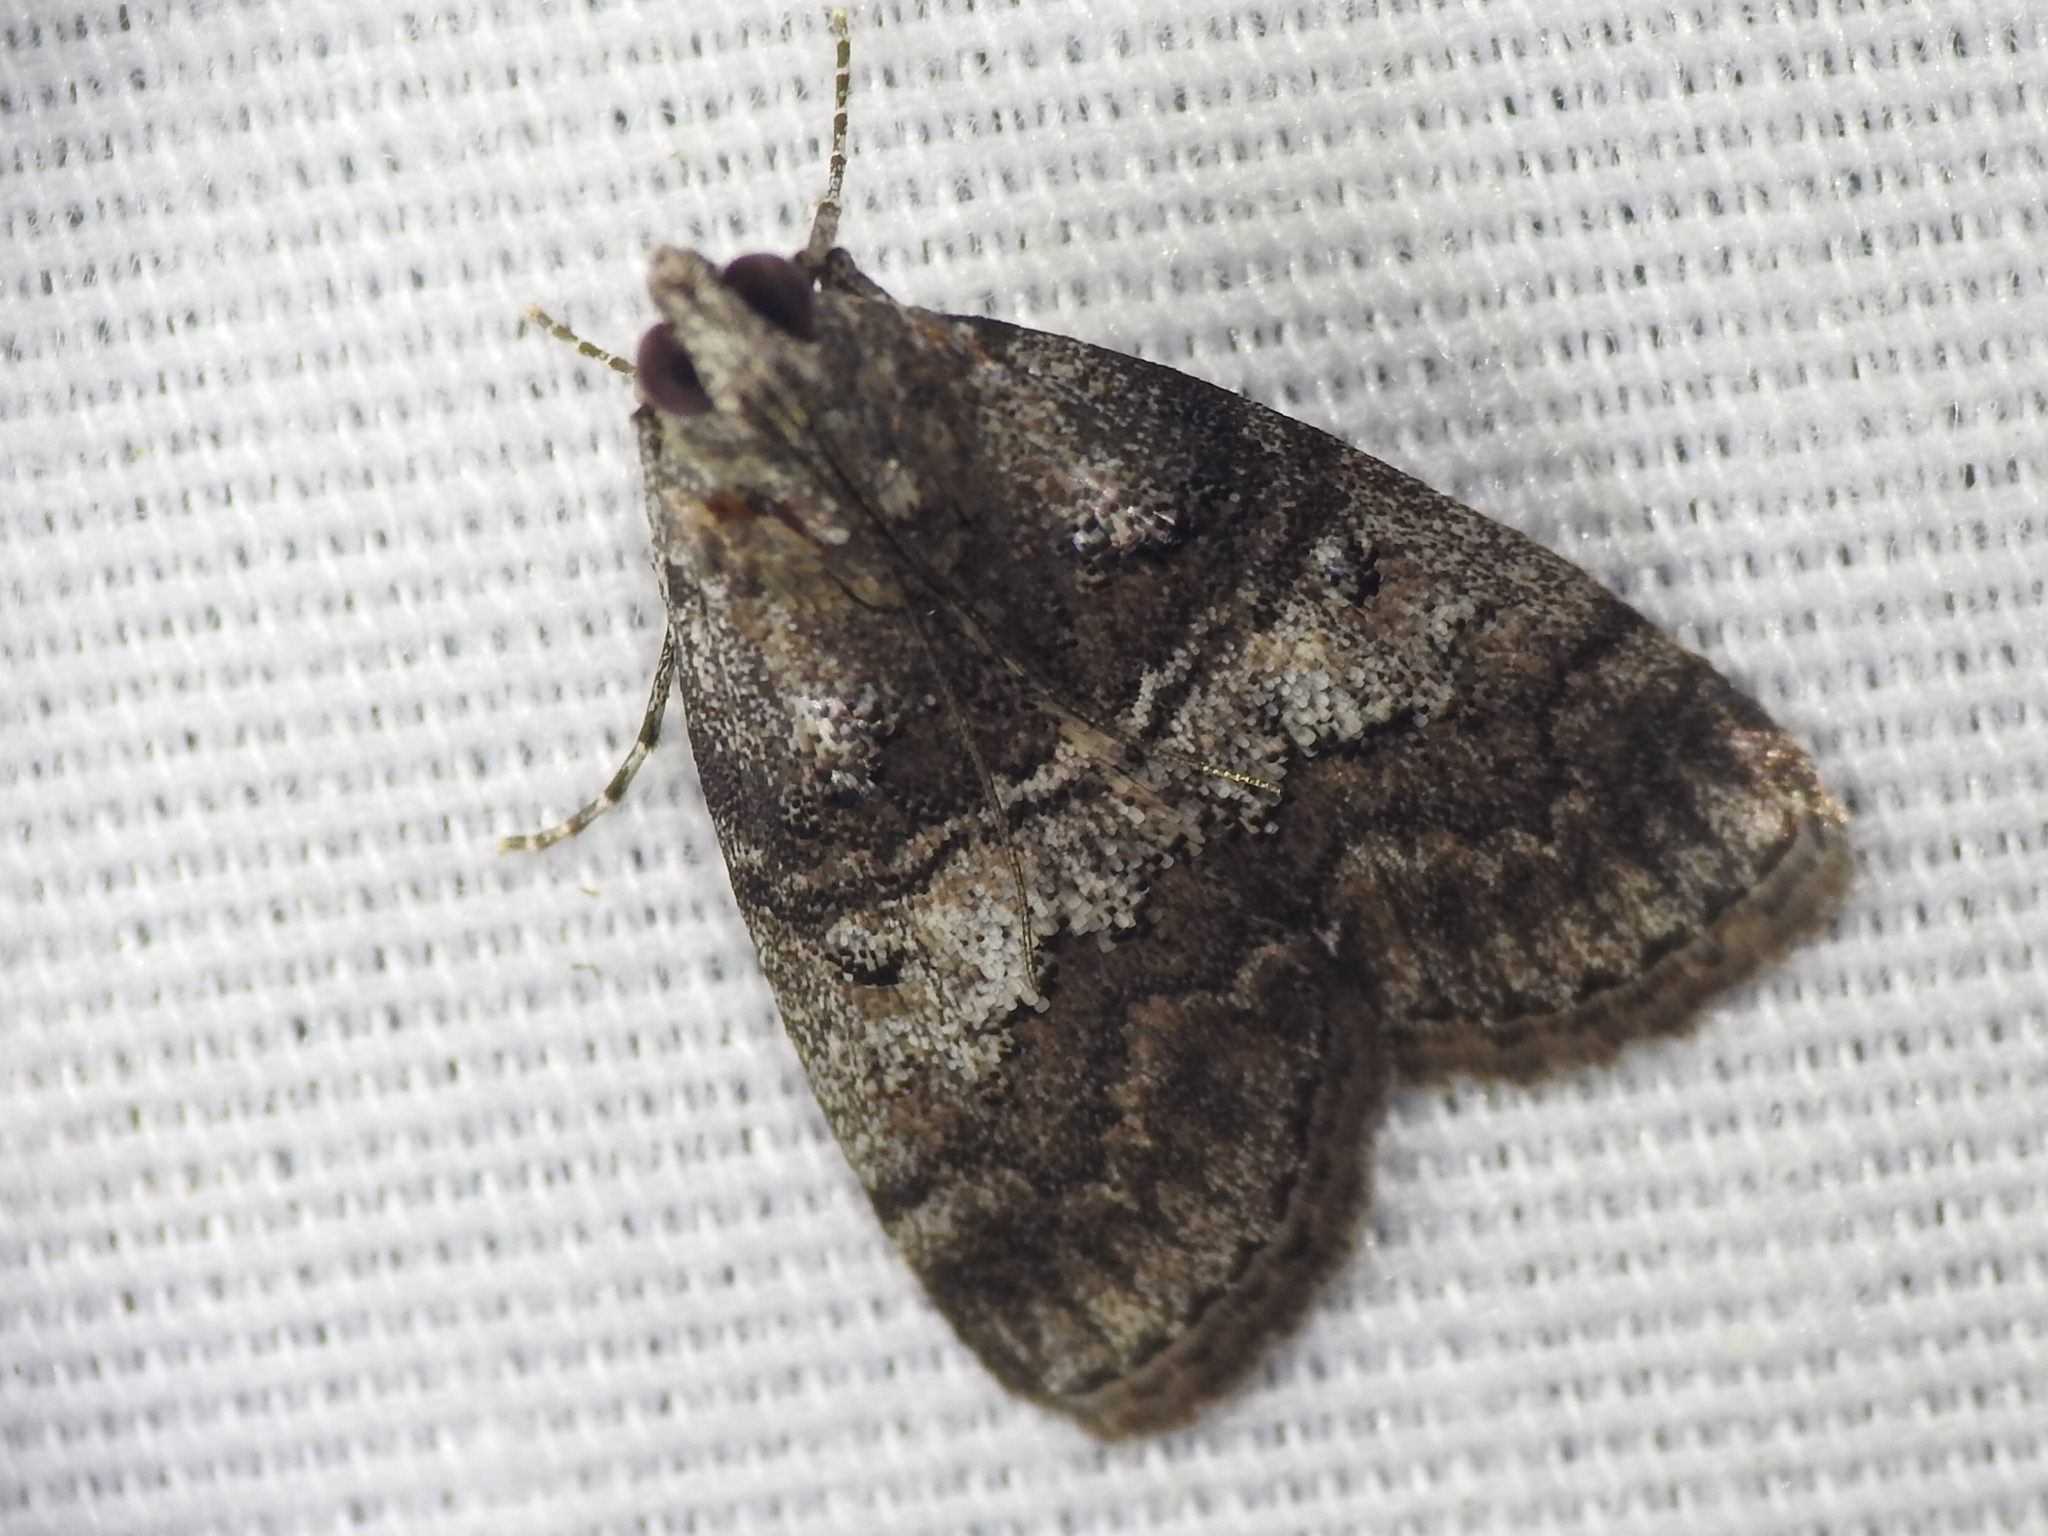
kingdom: Animalia
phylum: Arthropoda
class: Insecta
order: Lepidoptera
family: Pyralidae
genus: Pococera
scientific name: Pococera asperatella
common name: Maple webworm moth
